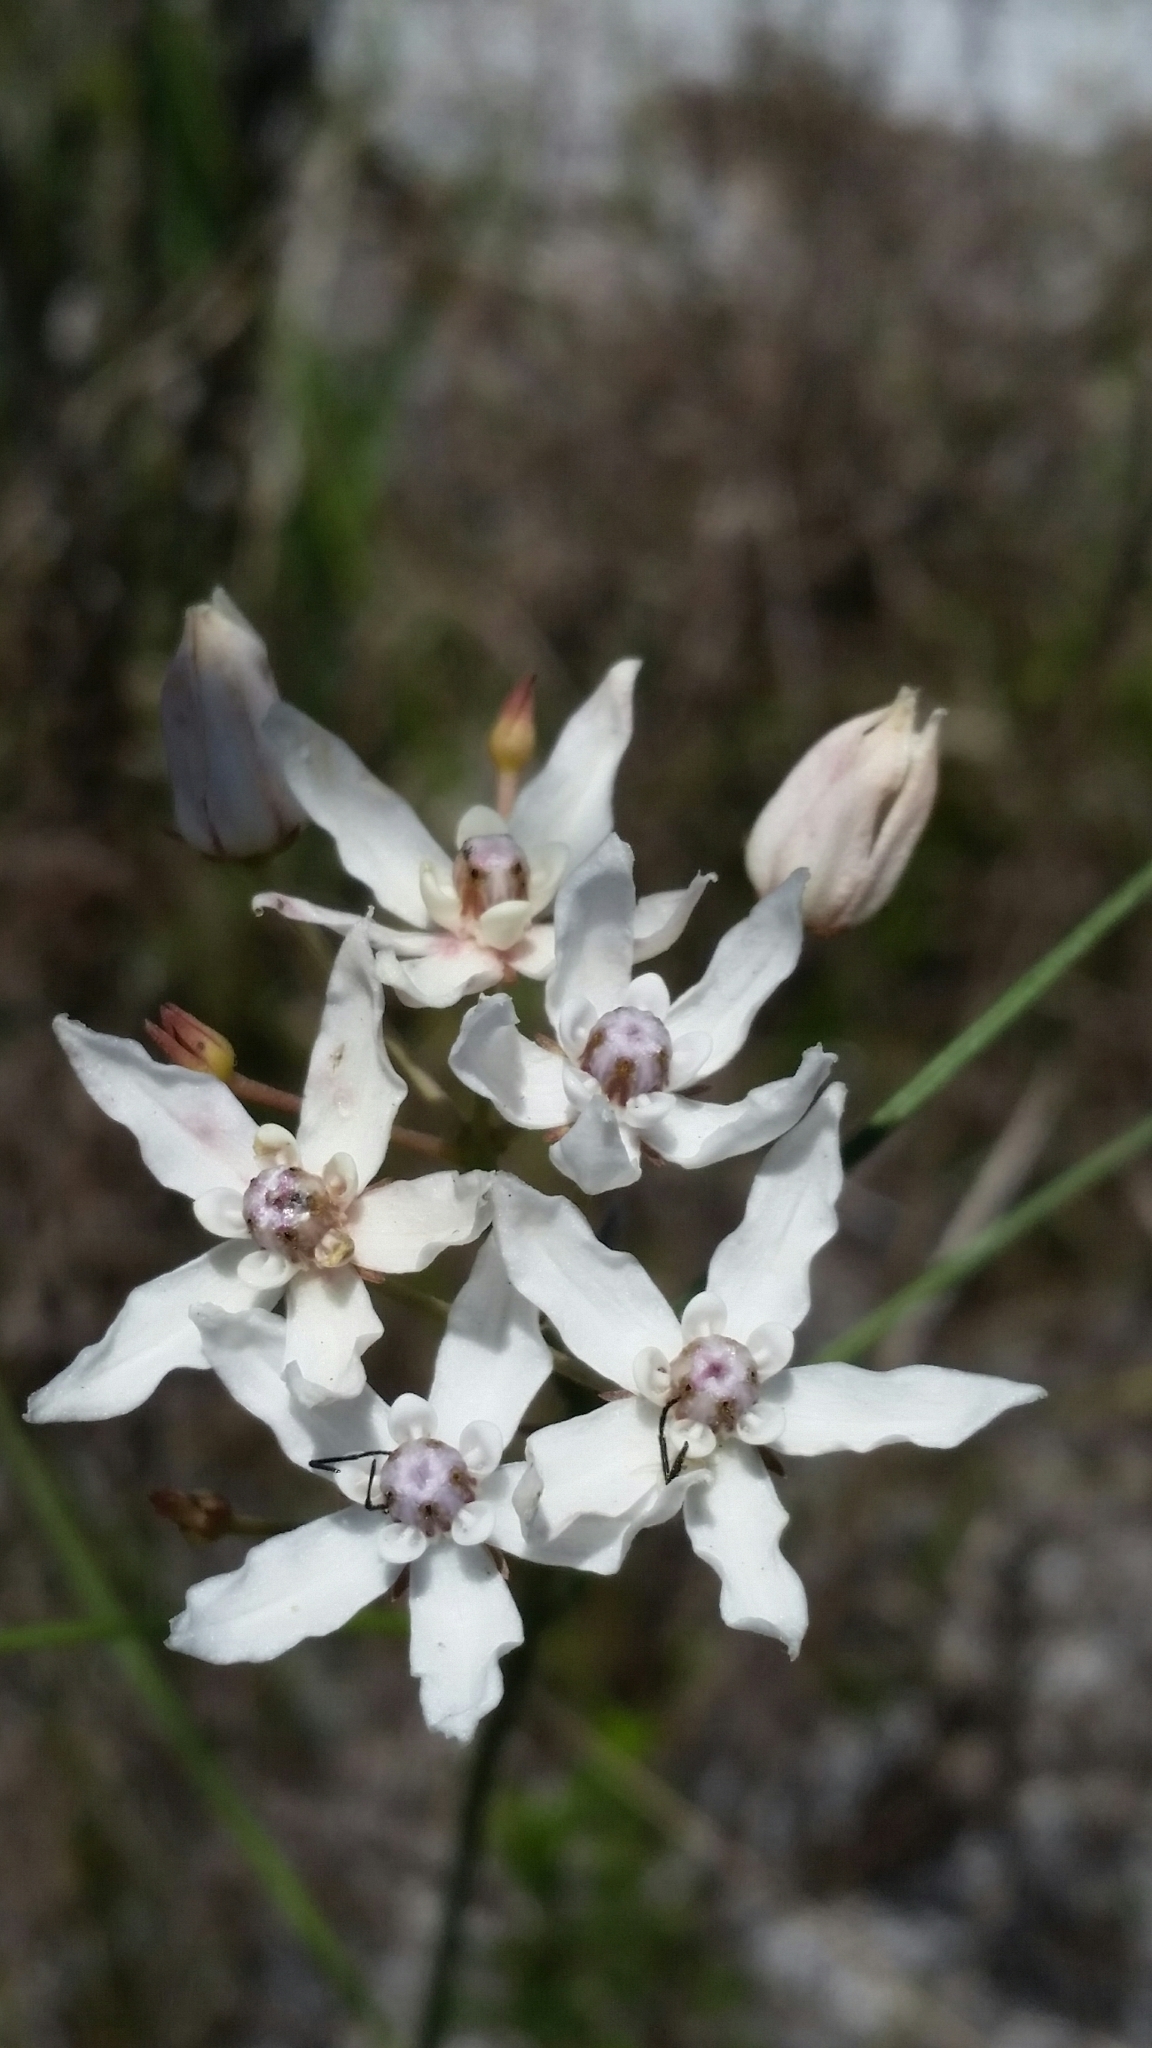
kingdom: Plantae
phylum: Tracheophyta
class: Magnoliopsida
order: Gentianales
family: Apocynaceae
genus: Asclepias
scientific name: Asclepias feayi
